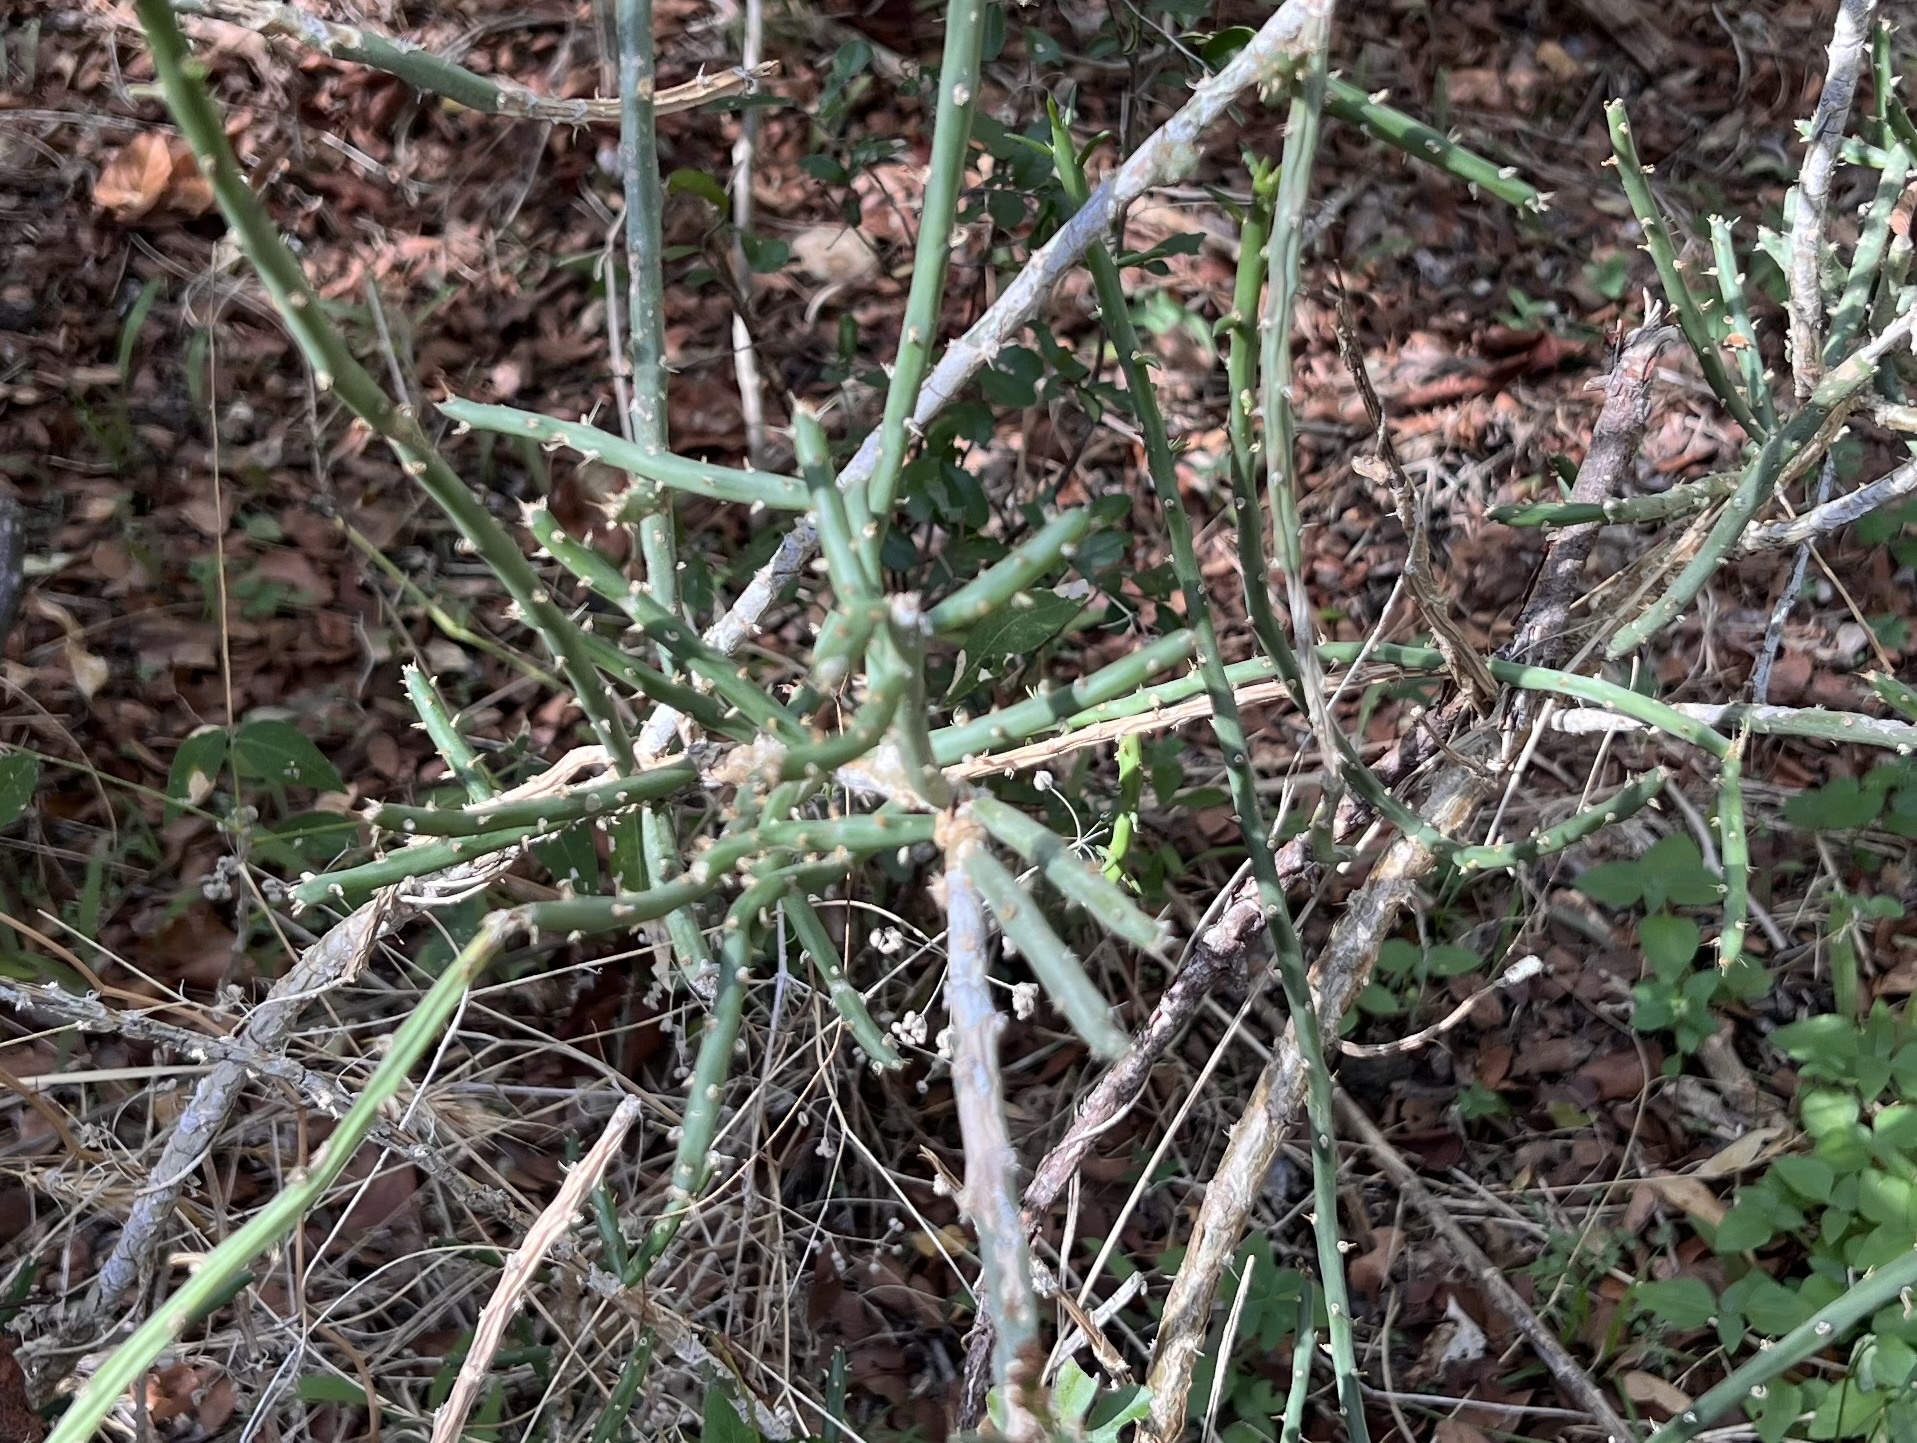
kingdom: Plantae
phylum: Tracheophyta
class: Magnoliopsida
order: Caryophyllales
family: Cactaceae
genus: Cylindropuntia
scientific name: Cylindropuntia leptocaulis
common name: Christmas cactus
